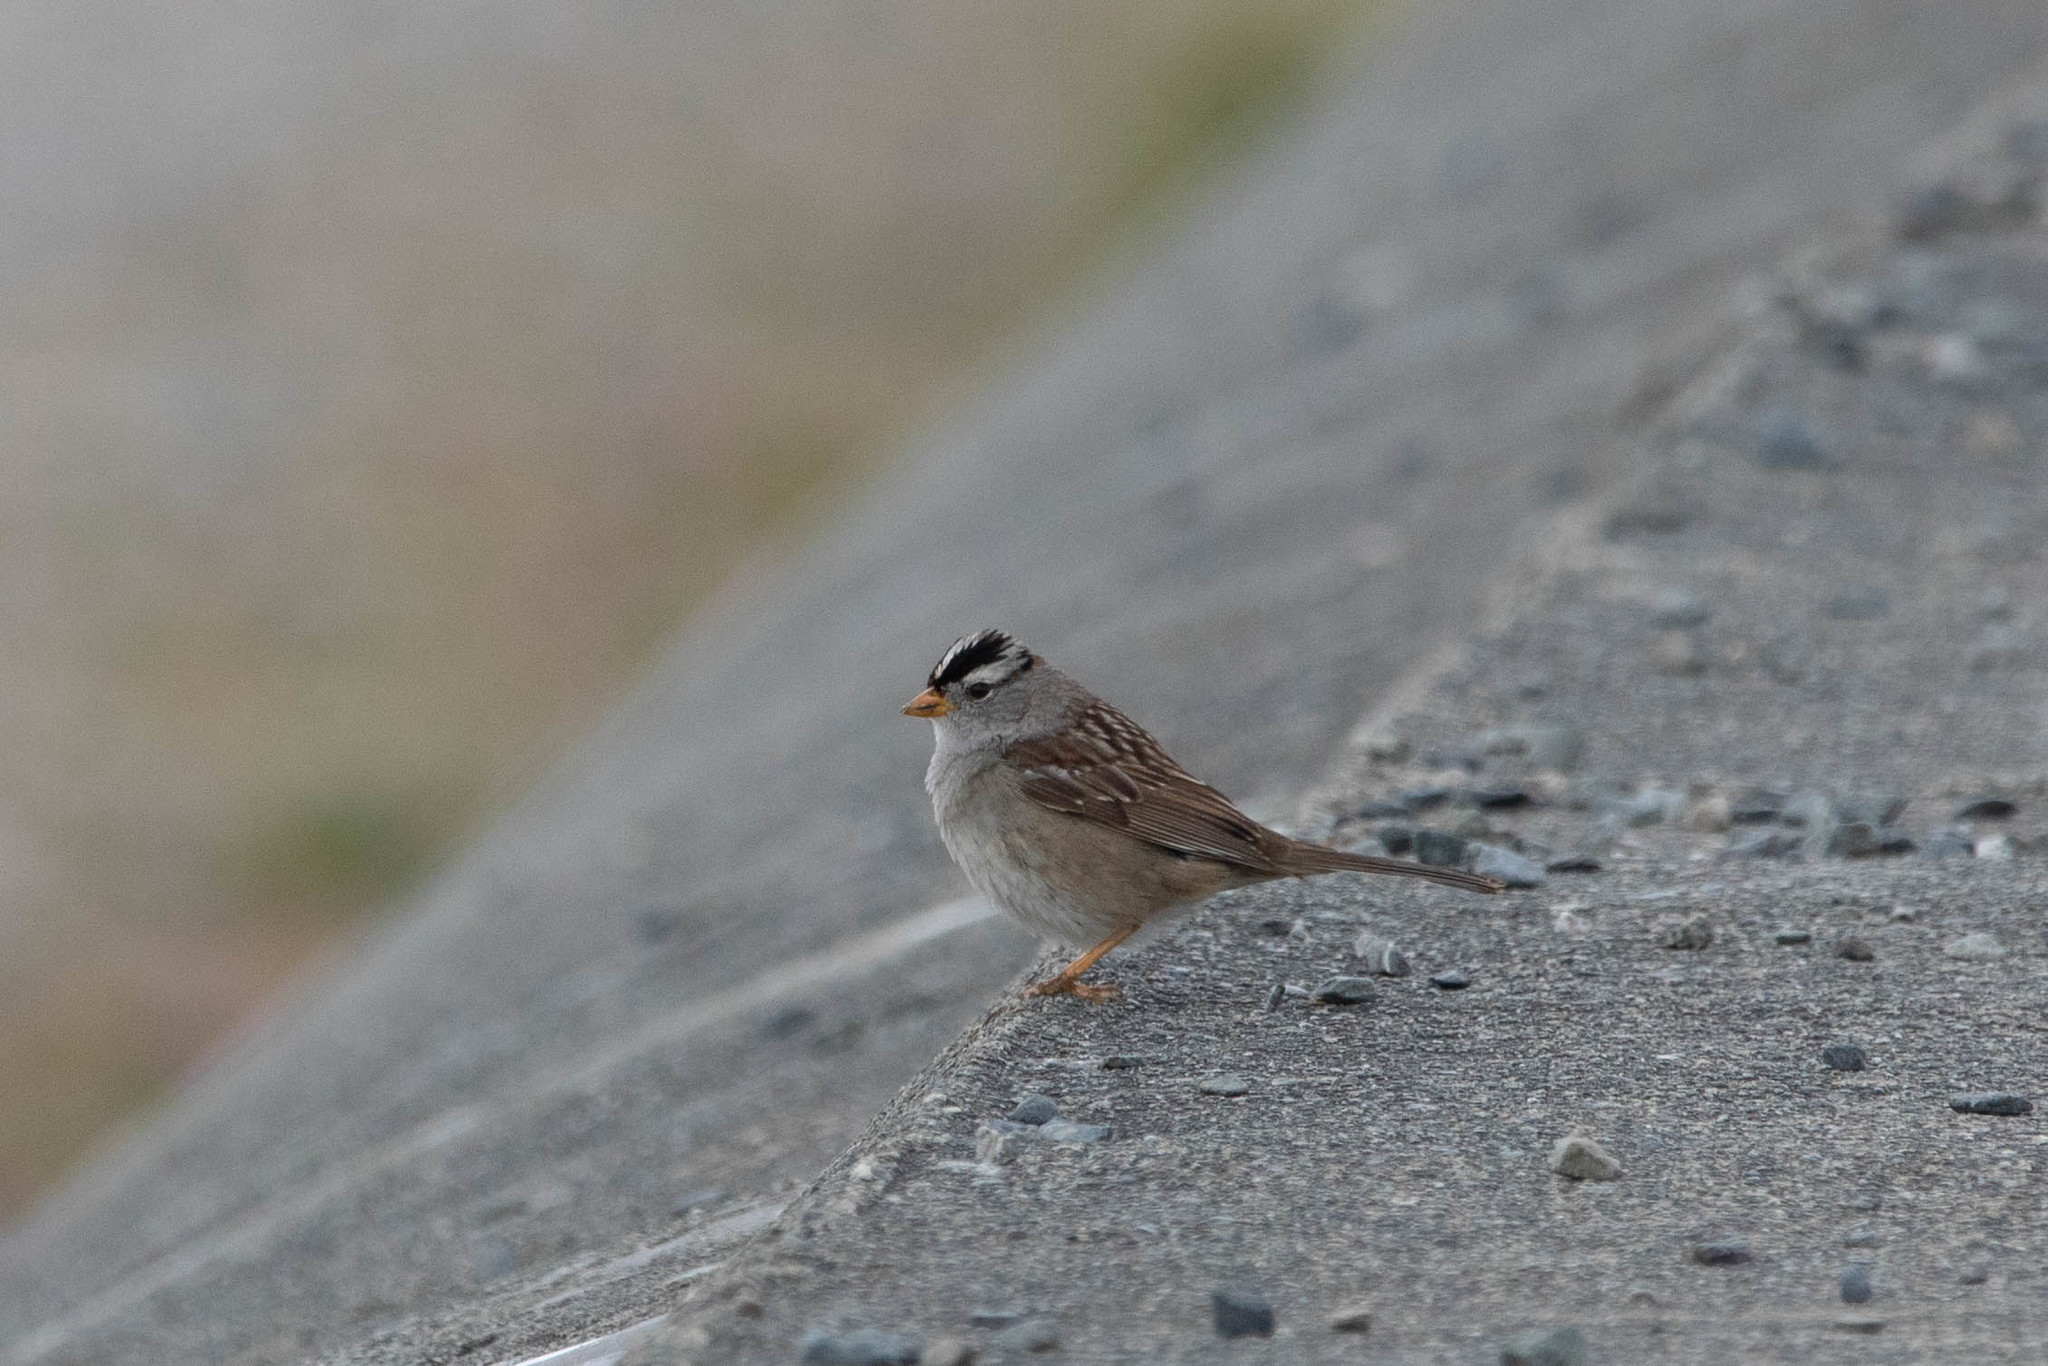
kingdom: Animalia
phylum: Chordata
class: Aves
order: Passeriformes
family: Passerellidae
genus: Zonotrichia
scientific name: Zonotrichia leucophrys
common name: White-crowned sparrow
